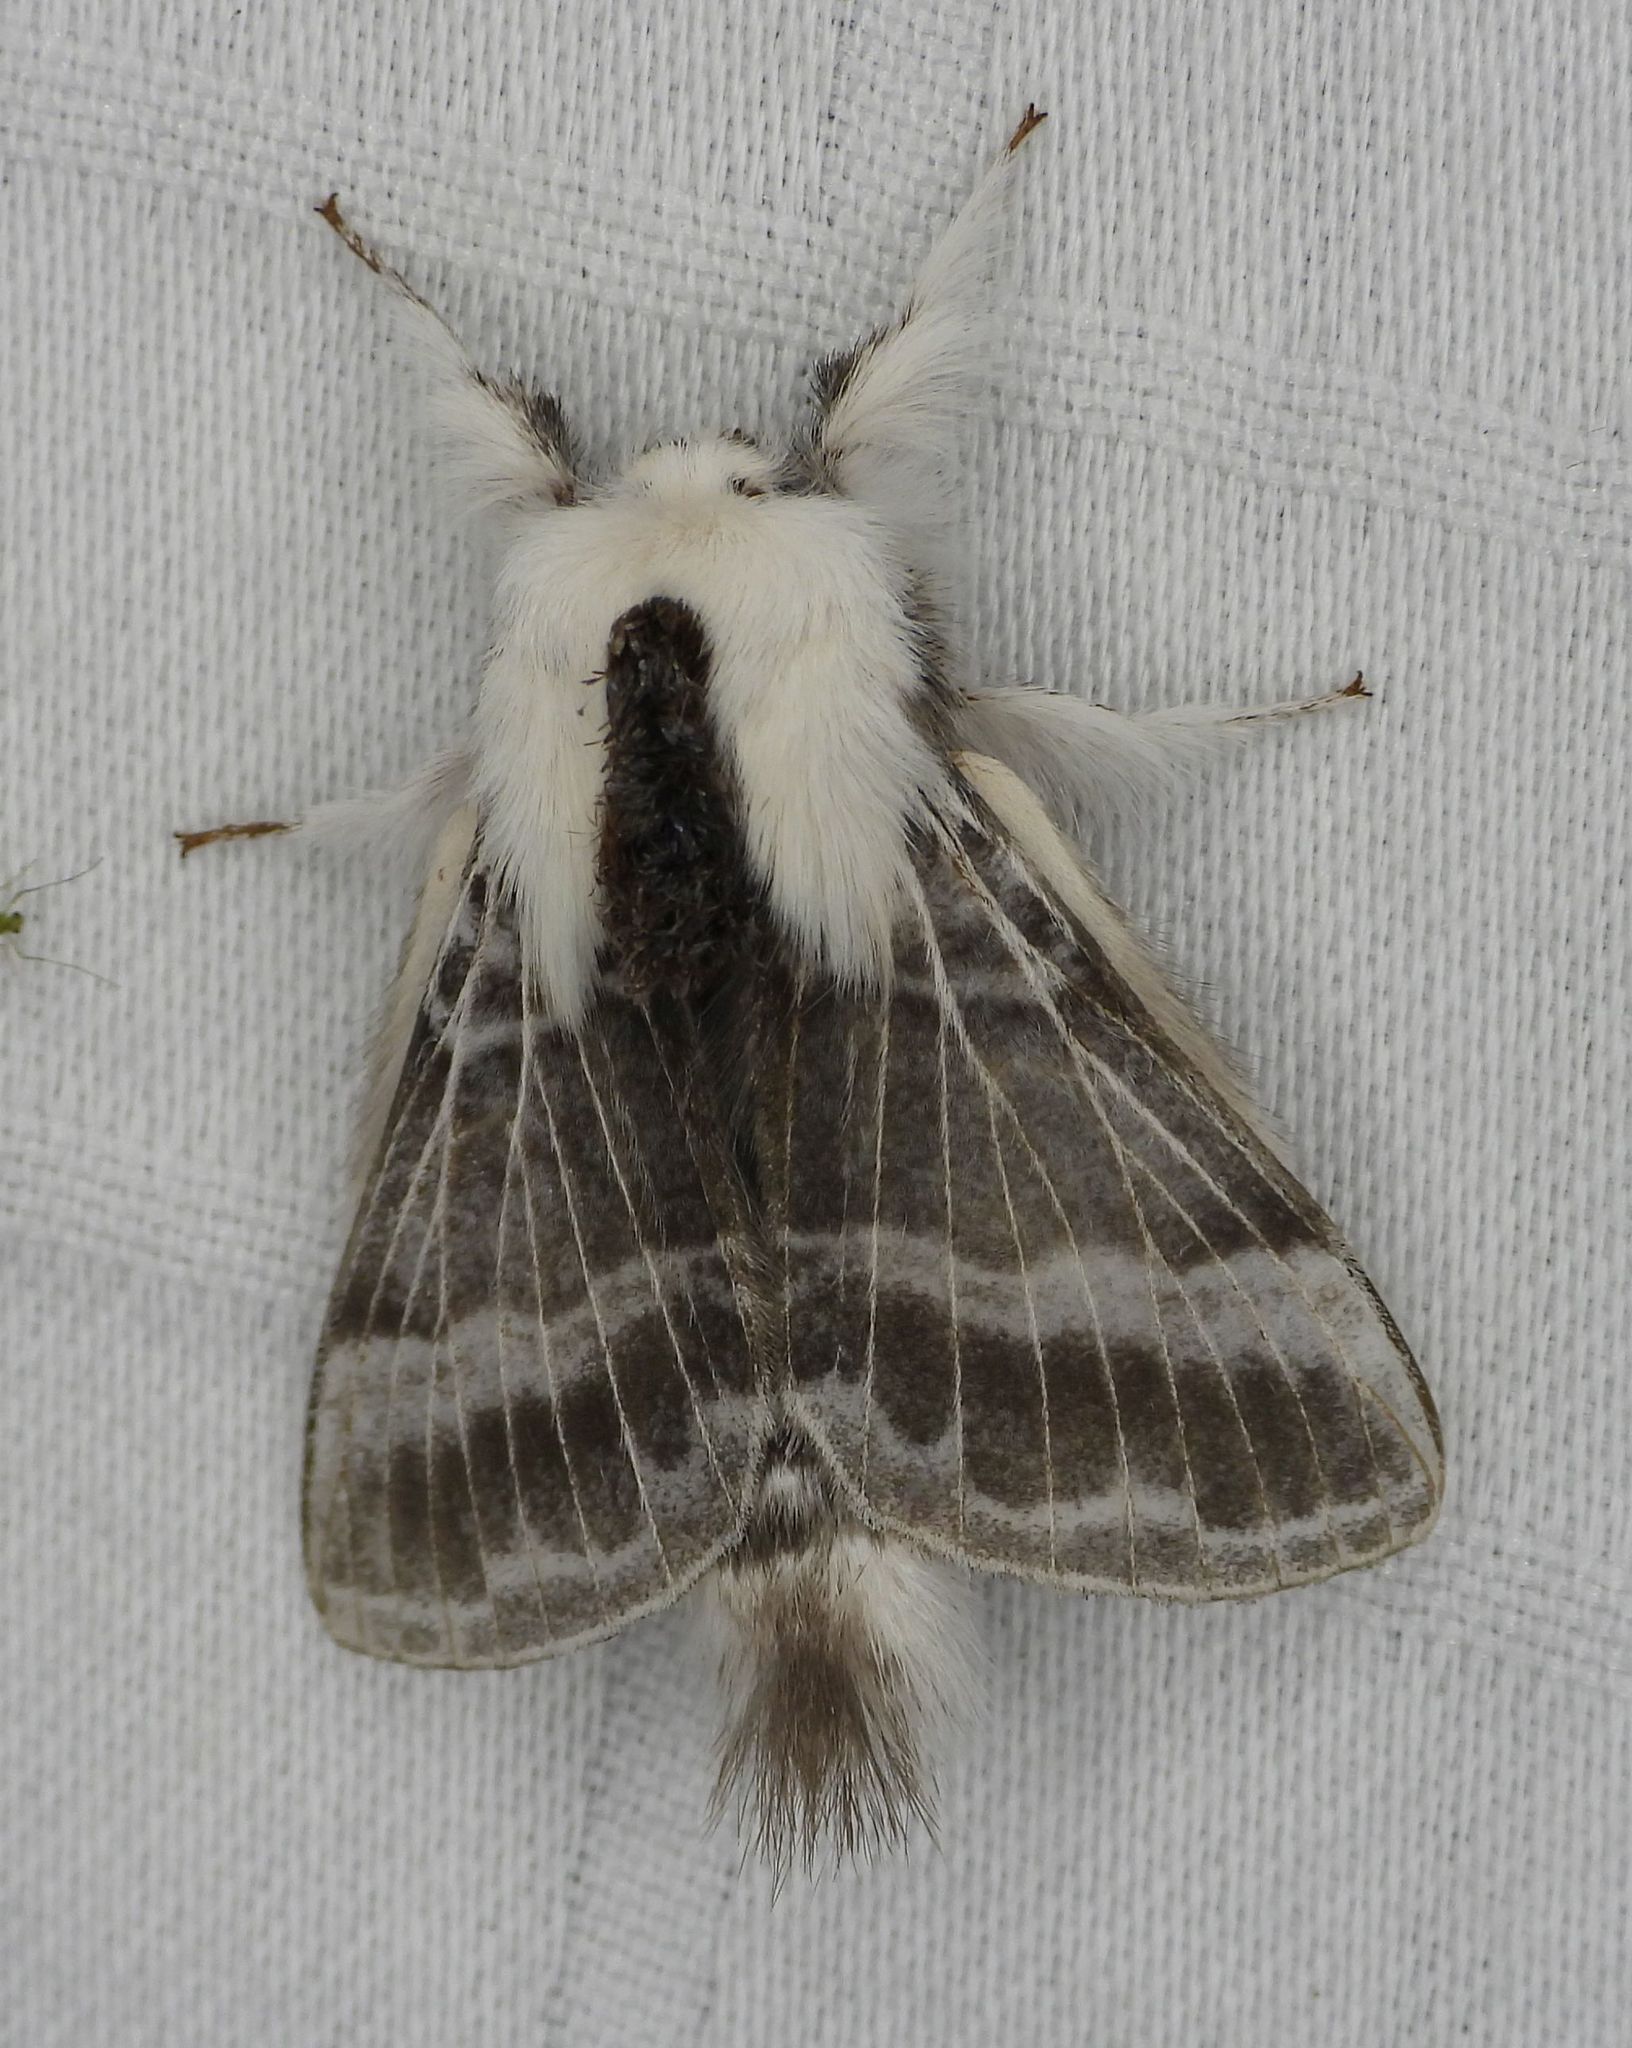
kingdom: Animalia
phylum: Arthropoda
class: Insecta
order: Lepidoptera
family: Lasiocampidae
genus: Tolype
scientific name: Tolype velleda
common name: Large tolype moth
